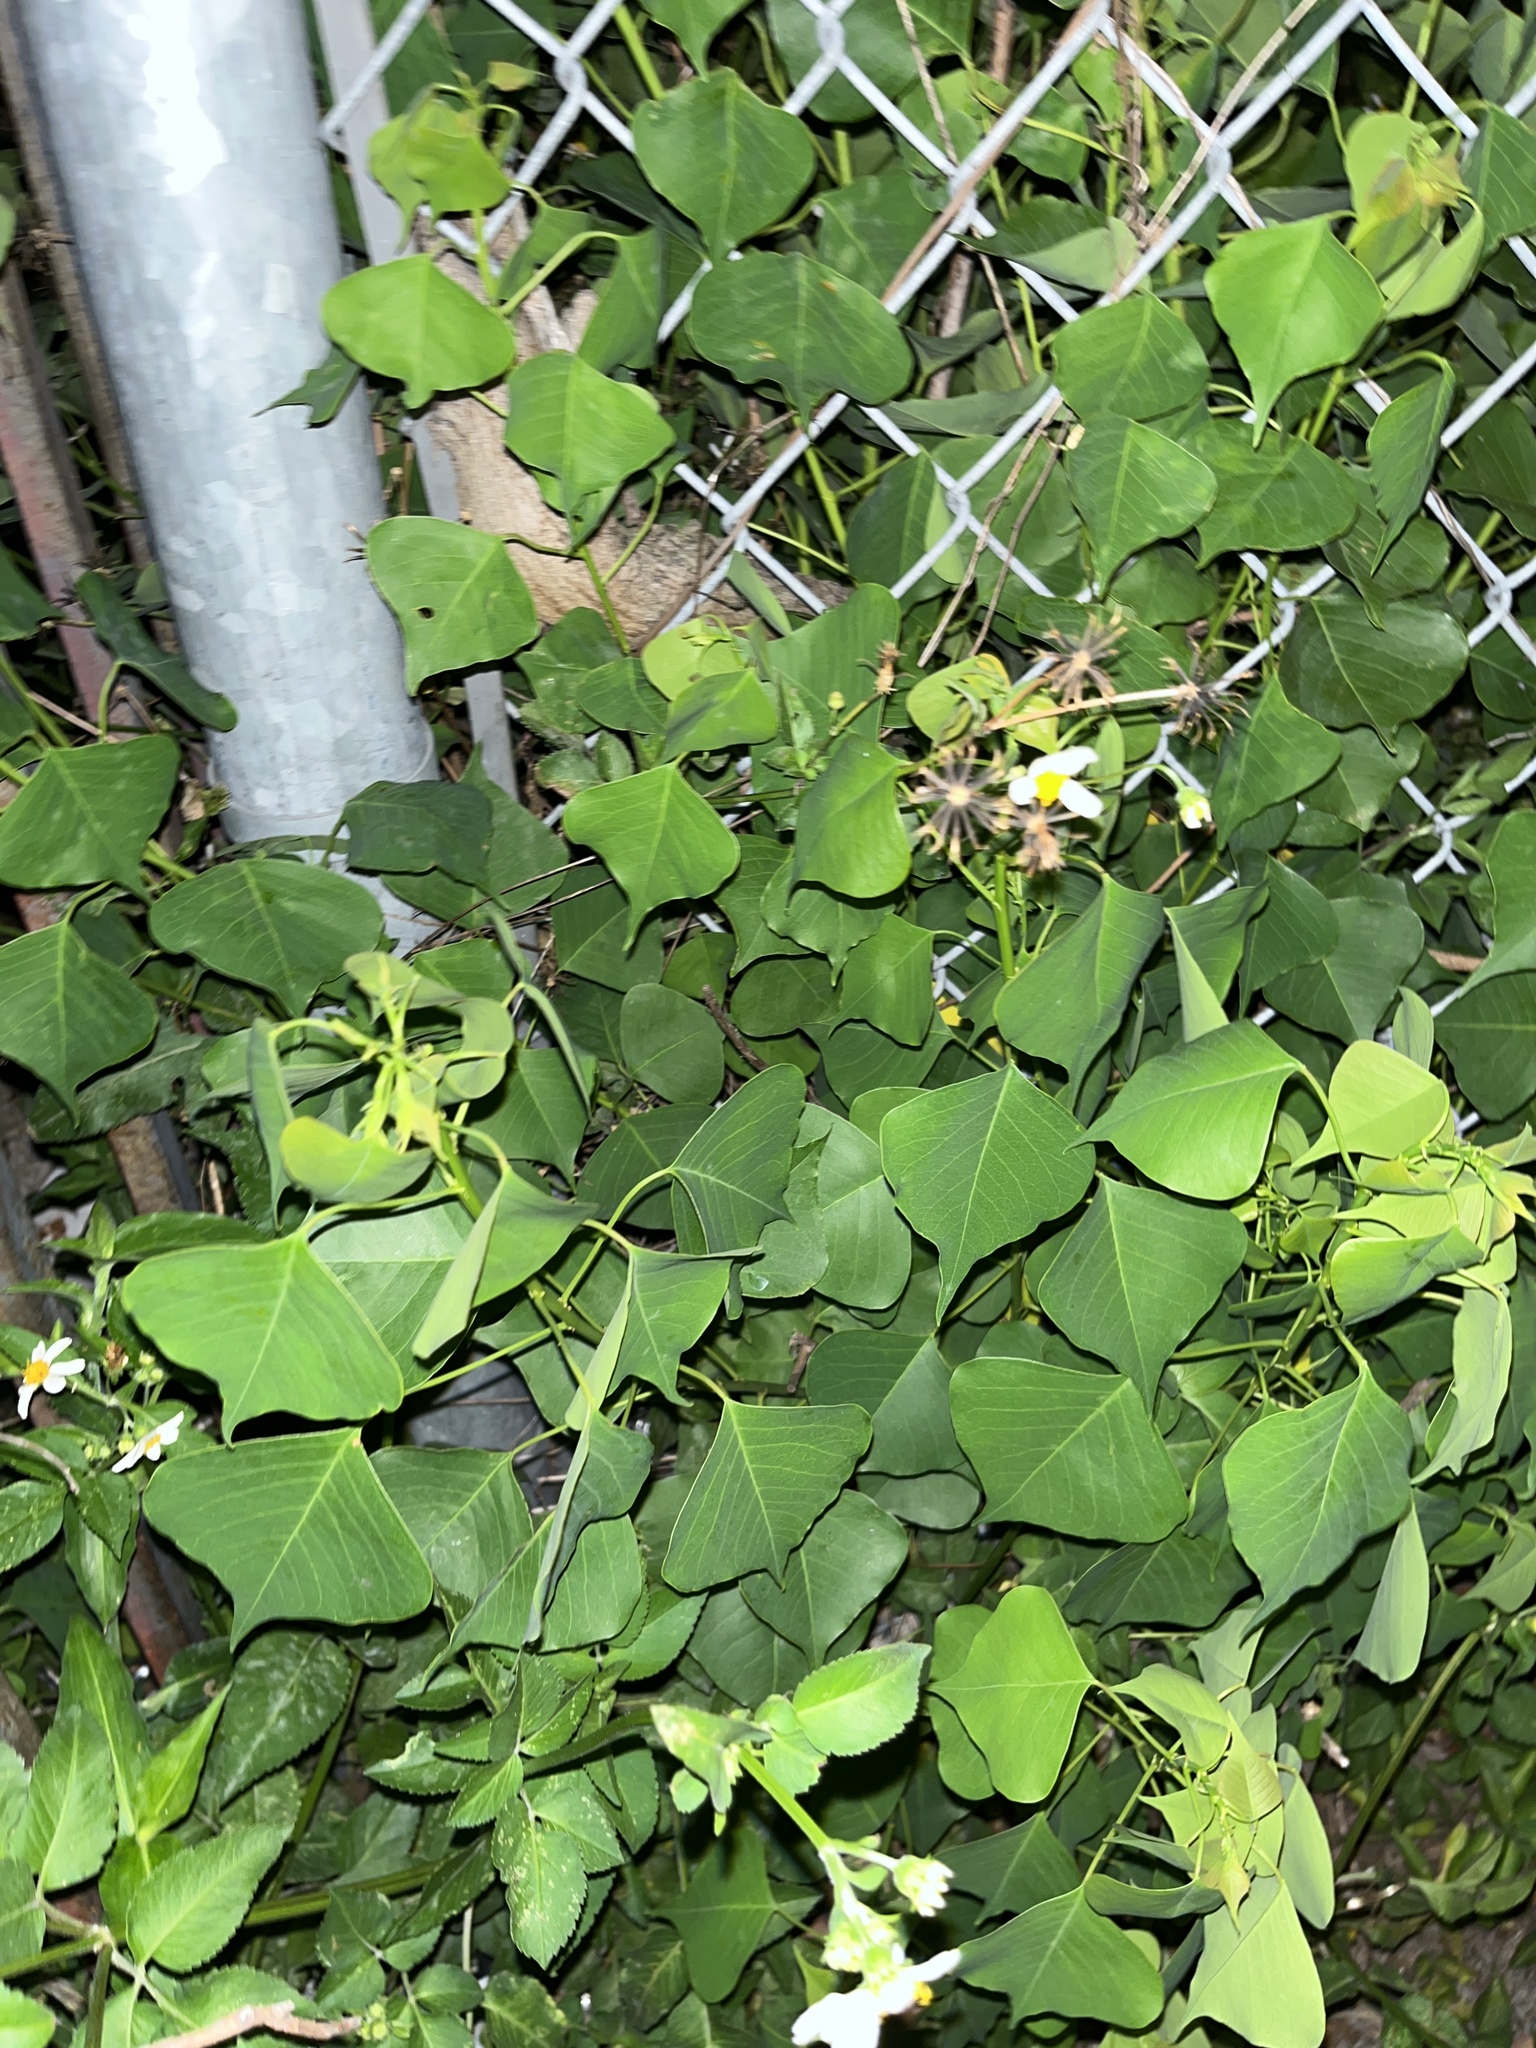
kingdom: Plantae
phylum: Tracheophyta
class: Magnoliopsida
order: Malpighiales
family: Euphorbiaceae
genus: Triadica
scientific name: Triadica sebifera
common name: Chinese tallow
